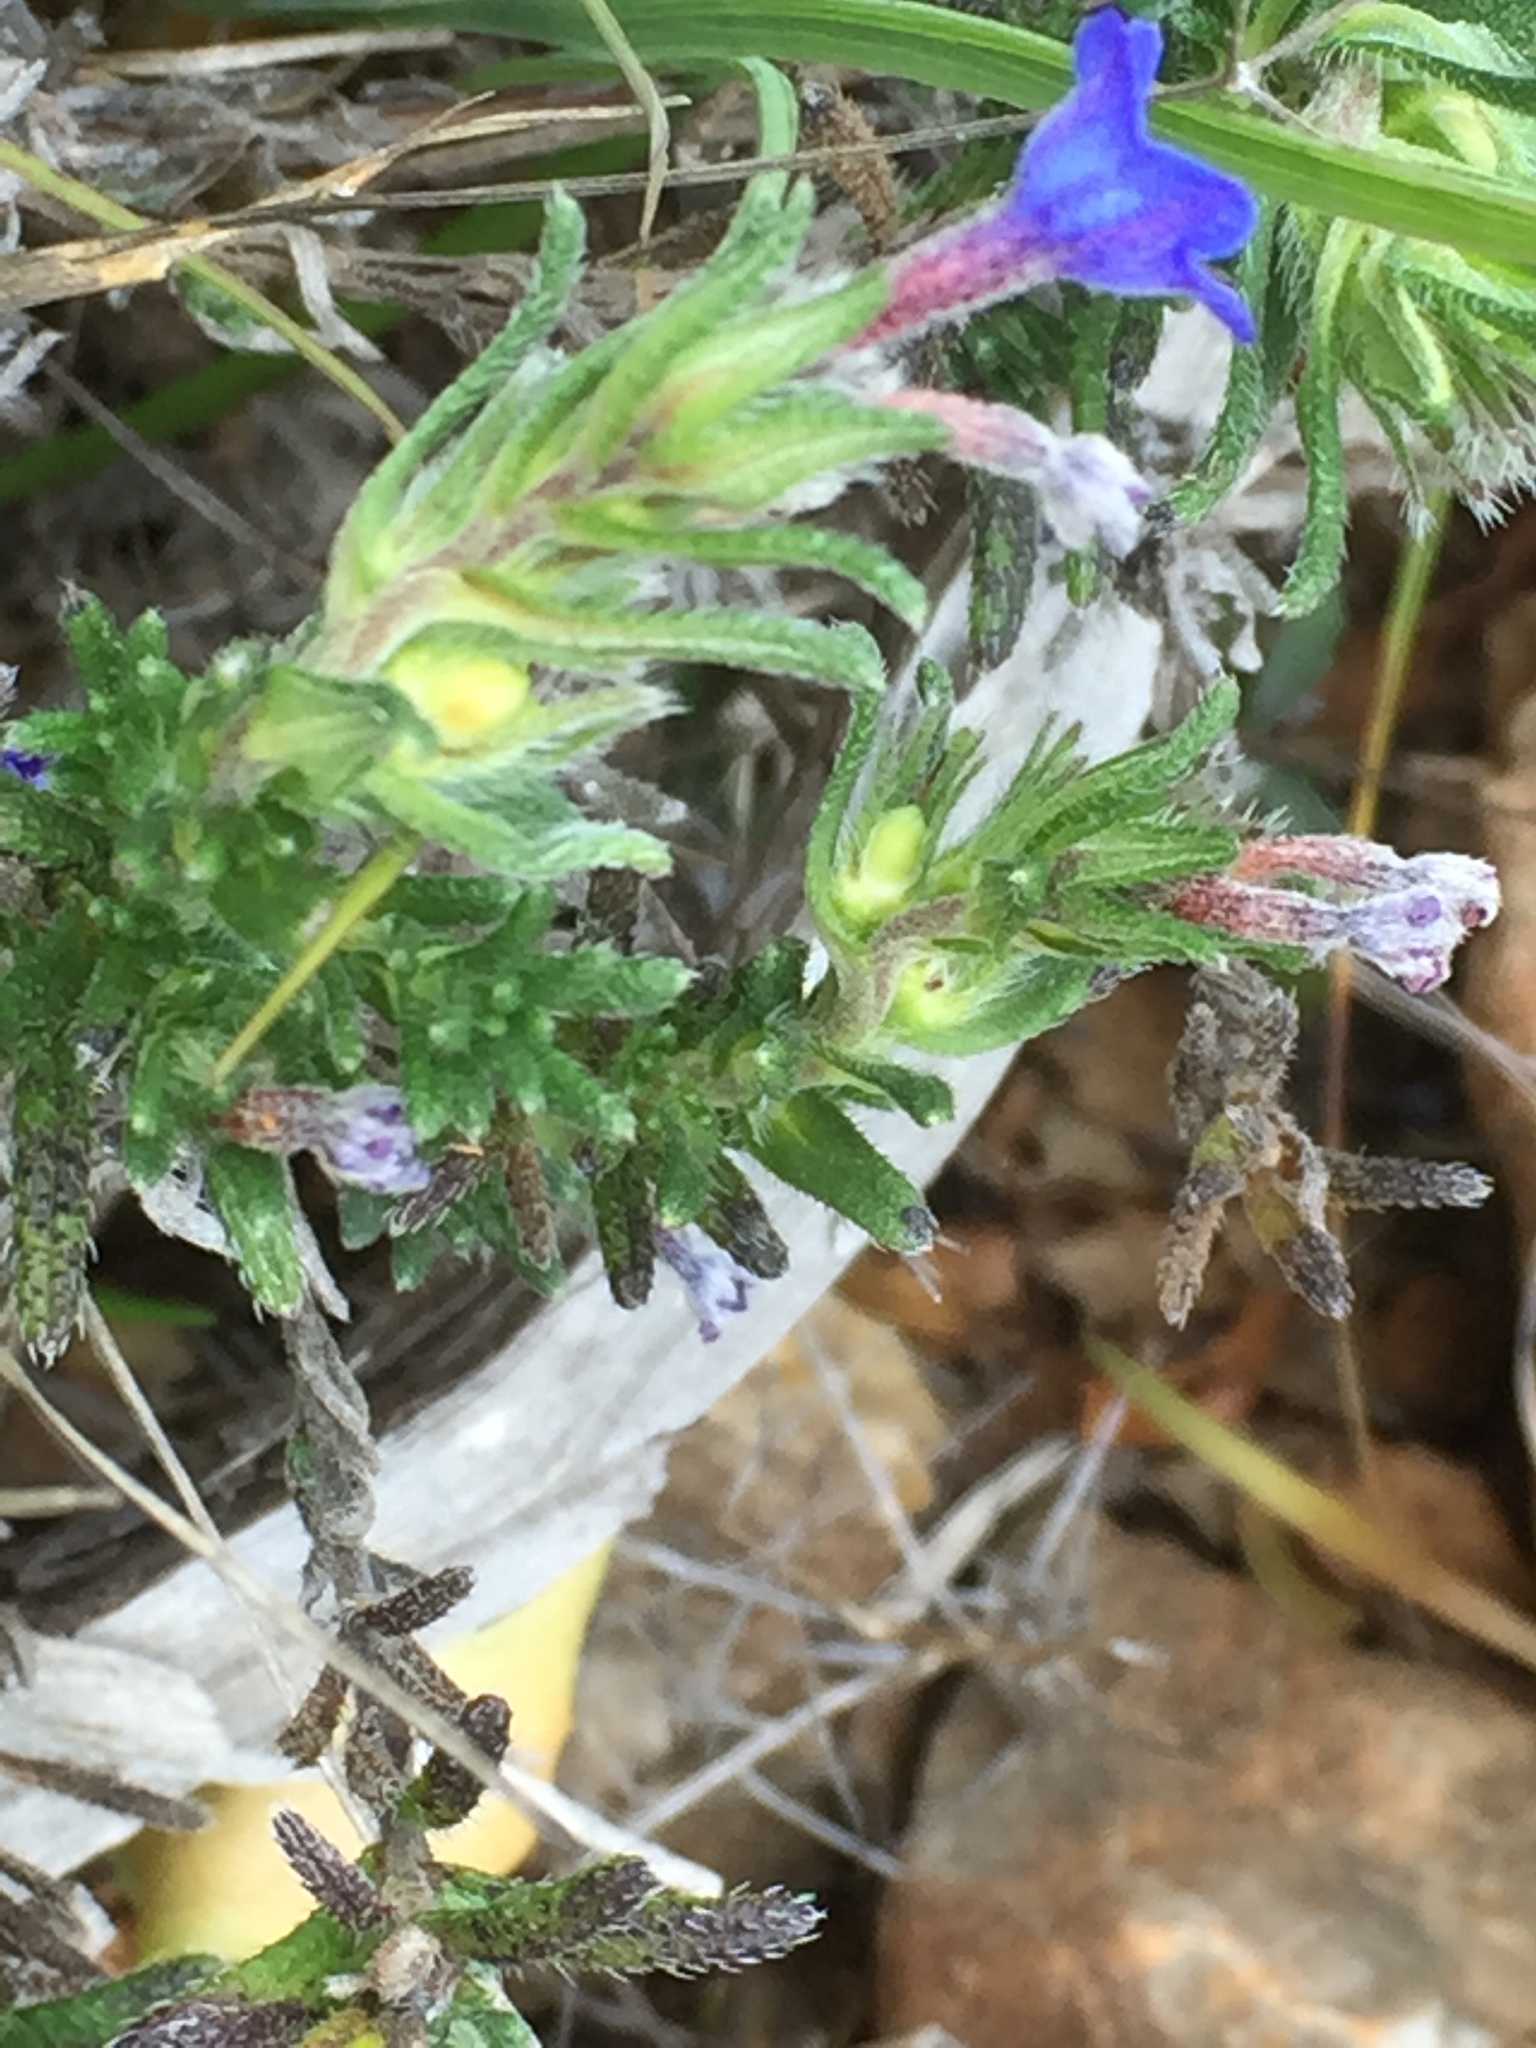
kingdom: Plantae
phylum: Tracheophyta
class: Magnoliopsida
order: Boraginales
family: Boraginaceae
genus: Glandora
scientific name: Glandora prostrata
